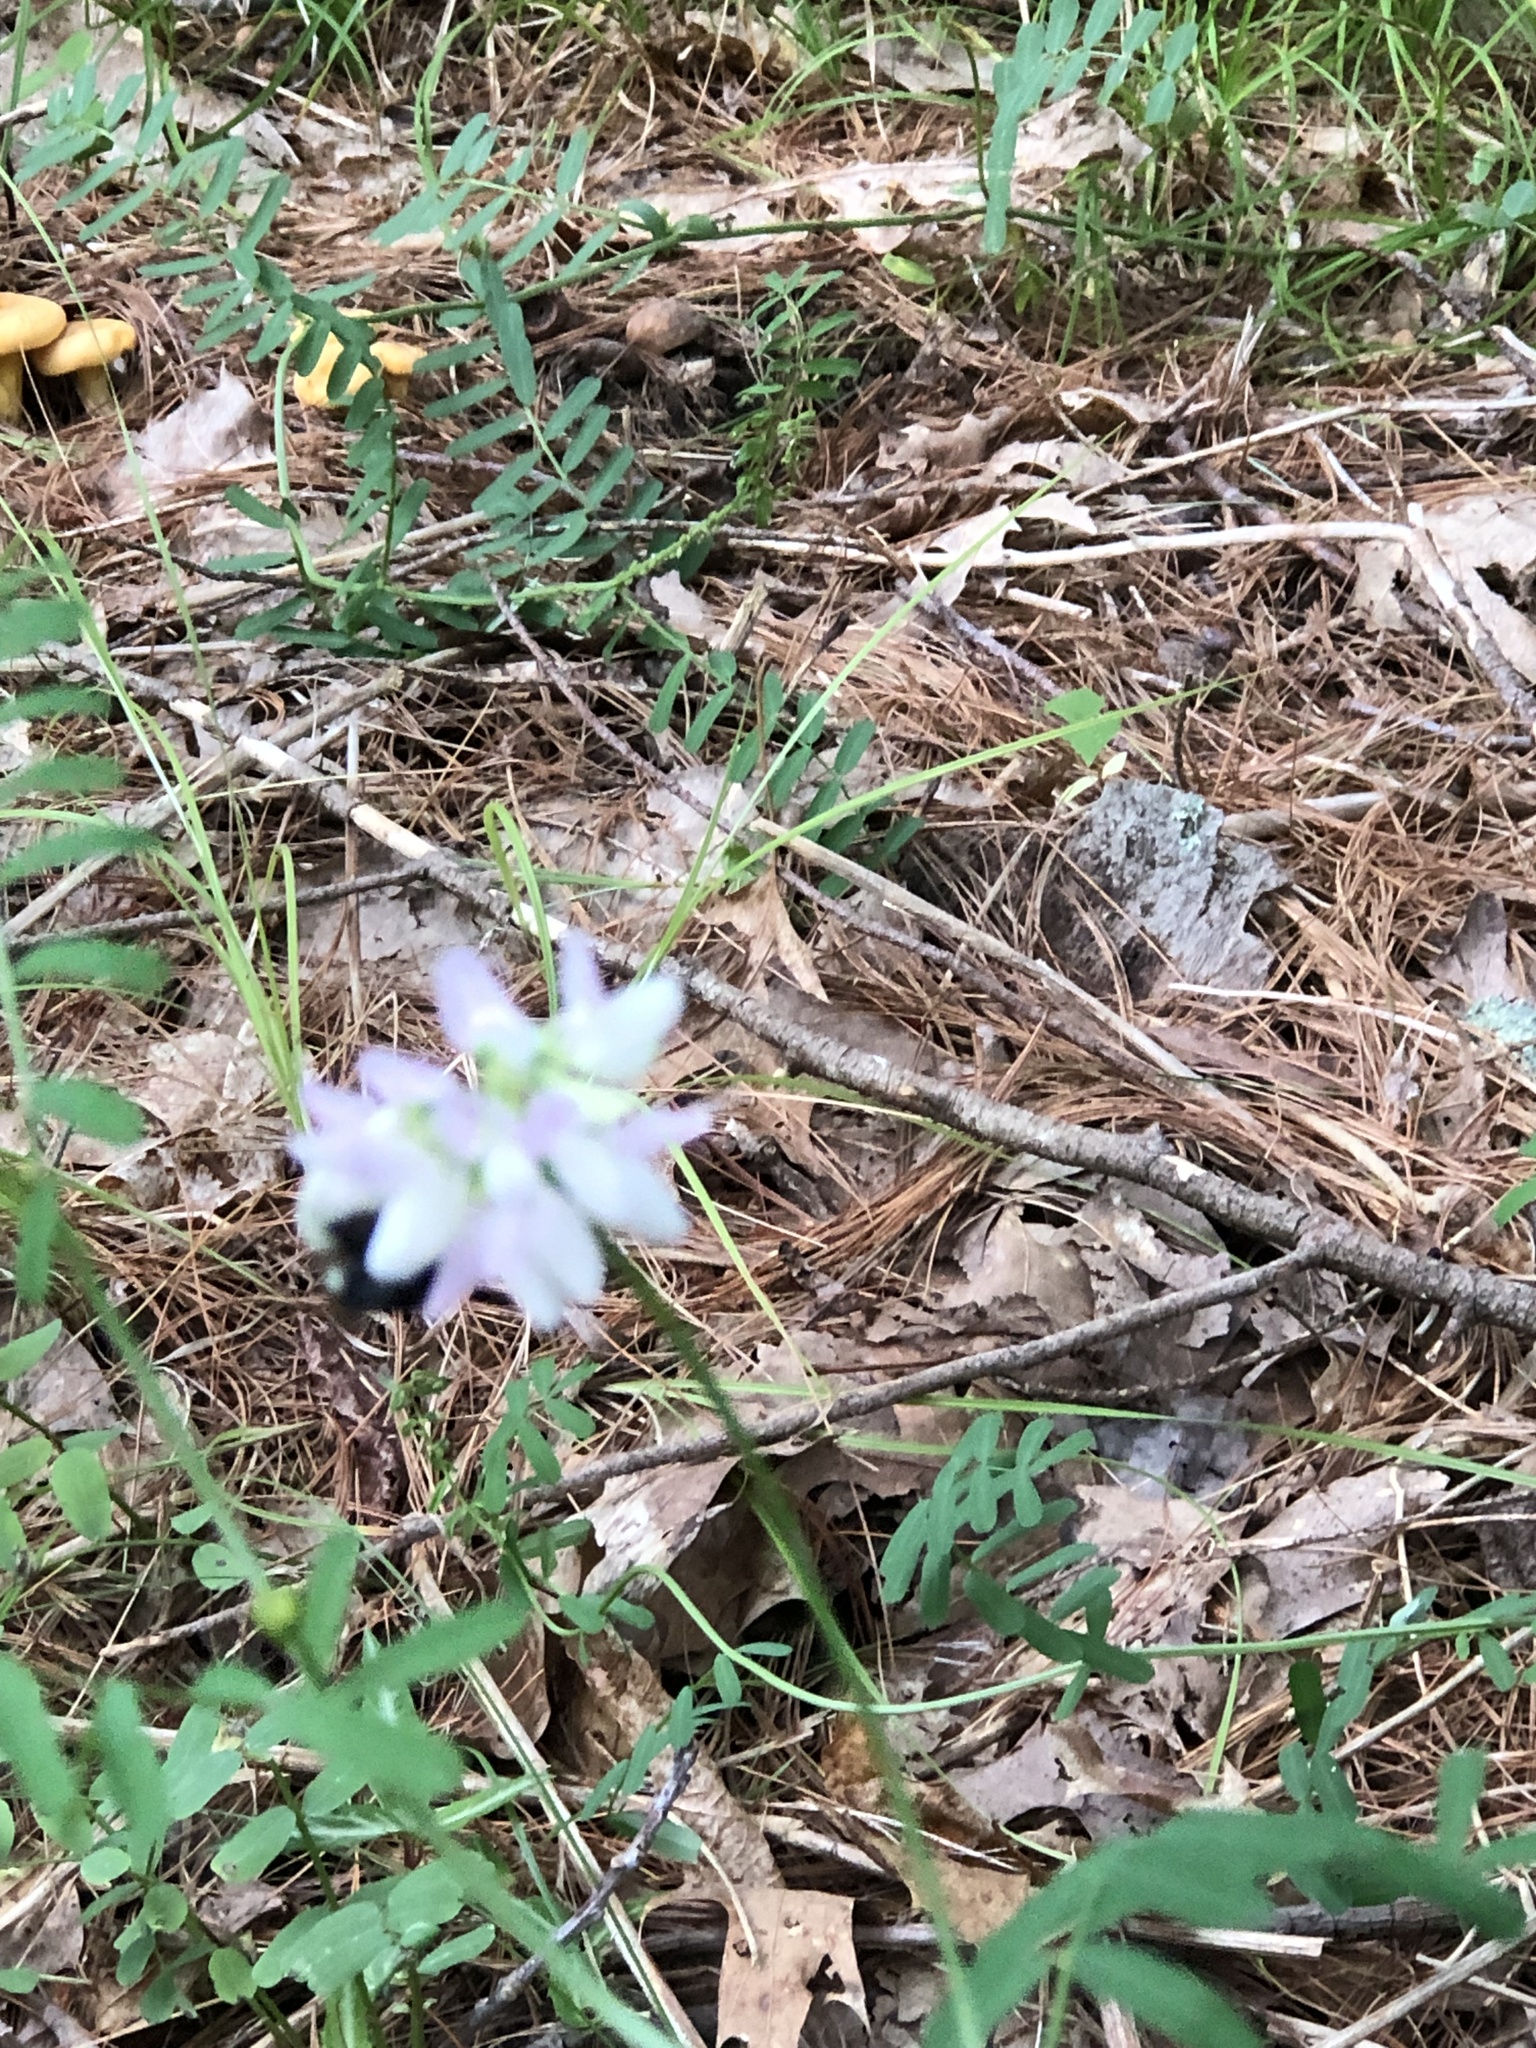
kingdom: Plantae
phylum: Tracheophyta
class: Magnoliopsida
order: Fabales
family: Fabaceae
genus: Coronilla
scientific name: Coronilla varia
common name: Crownvetch
